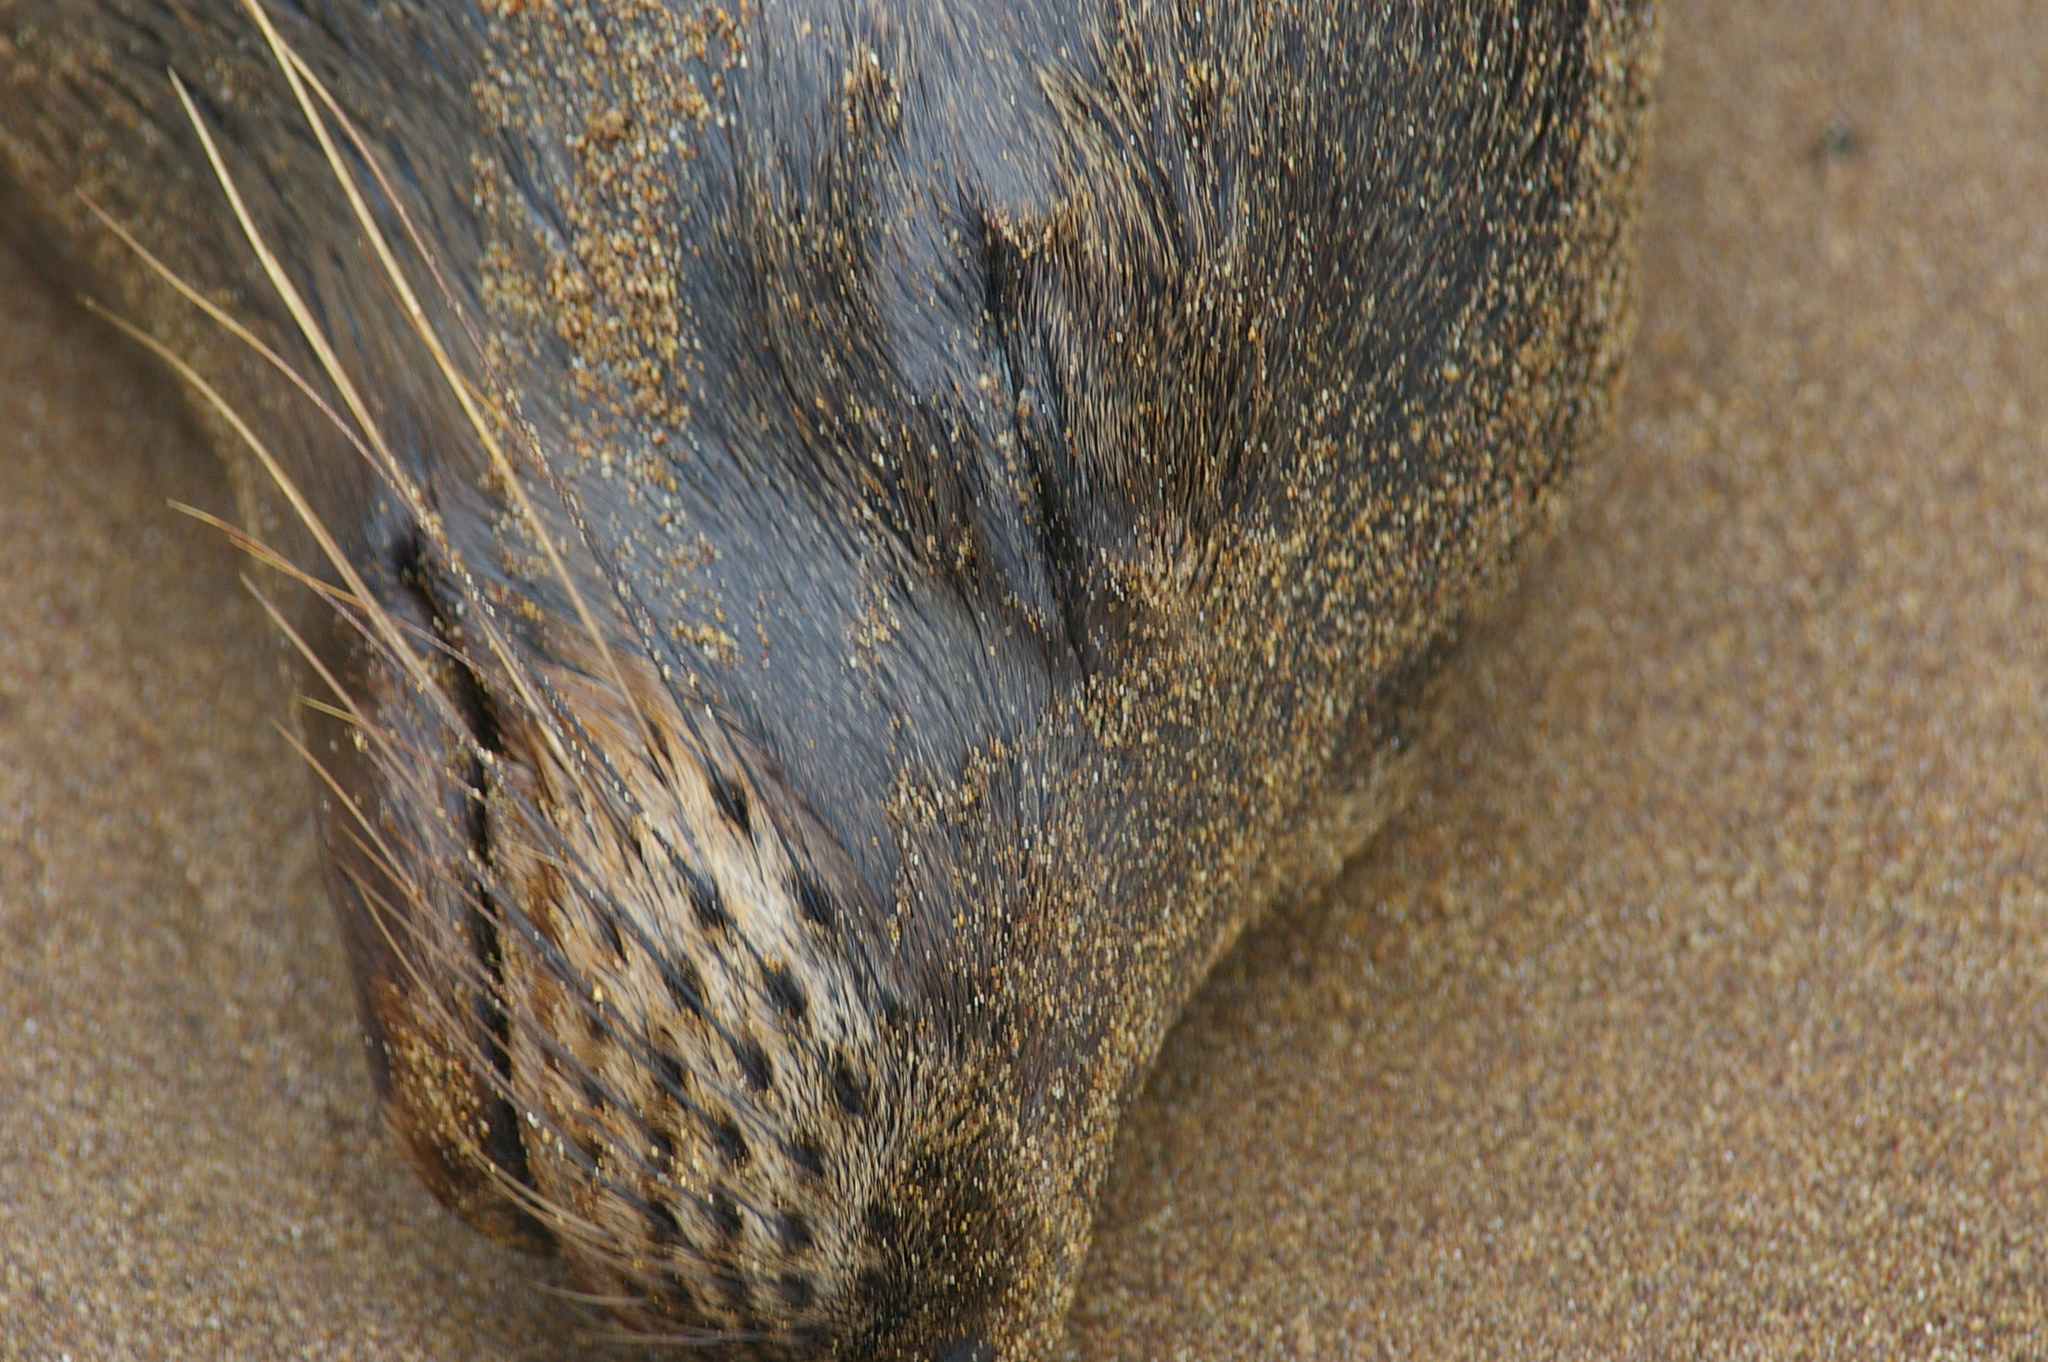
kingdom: Animalia
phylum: Chordata
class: Mammalia
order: Carnivora
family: Otariidae
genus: Zalophus
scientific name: Zalophus wollebaeki
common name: Galapagos sea lion
